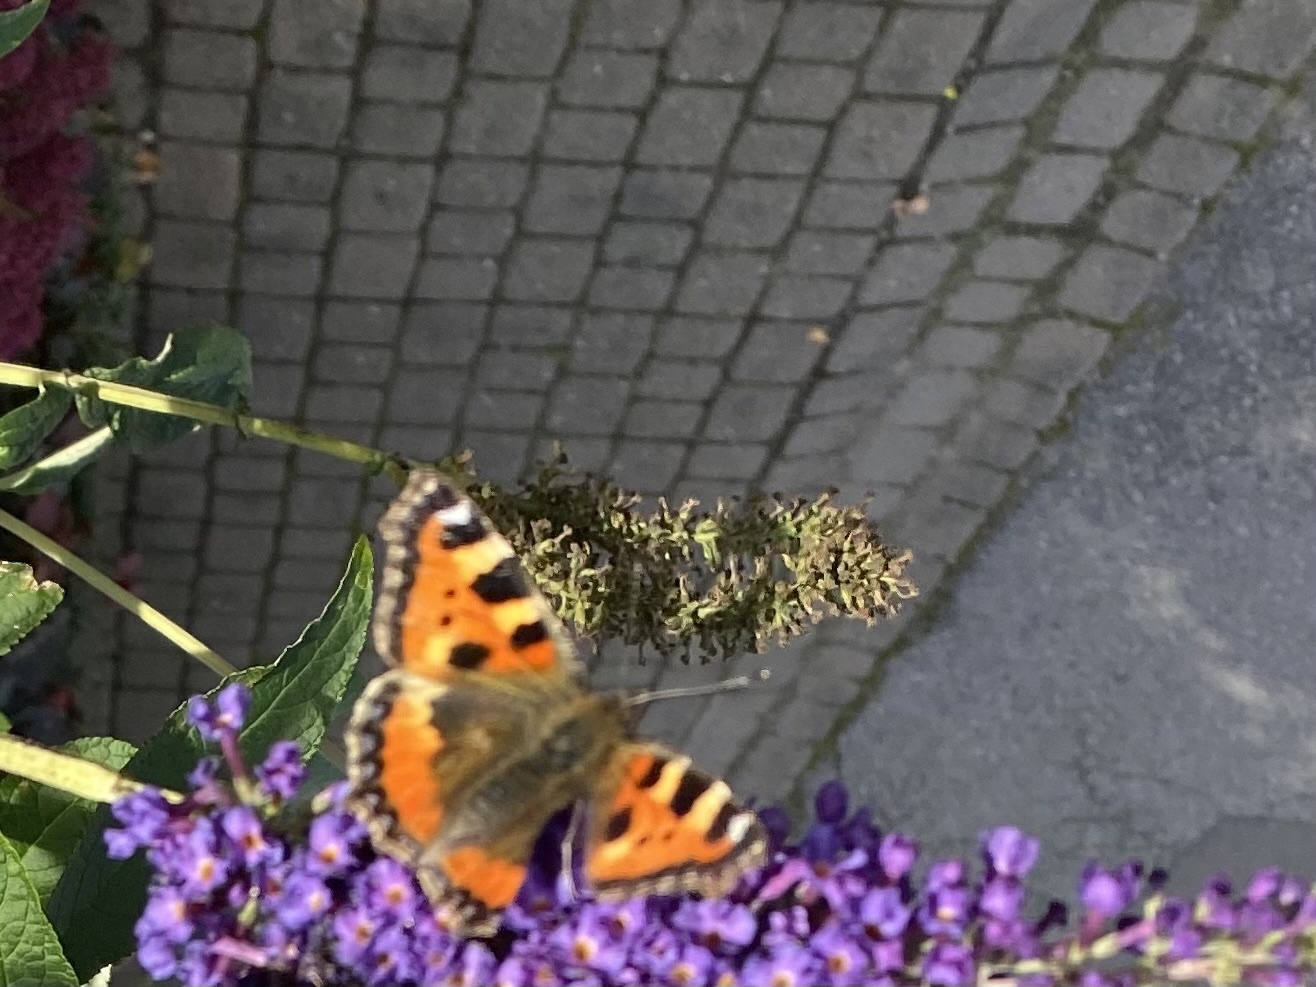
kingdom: Animalia
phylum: Arthropoda
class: Insecta
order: Lepidoptera
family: Nymphalidae
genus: Aglais
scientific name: Aglais urticae
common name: Small tortoiseshell
